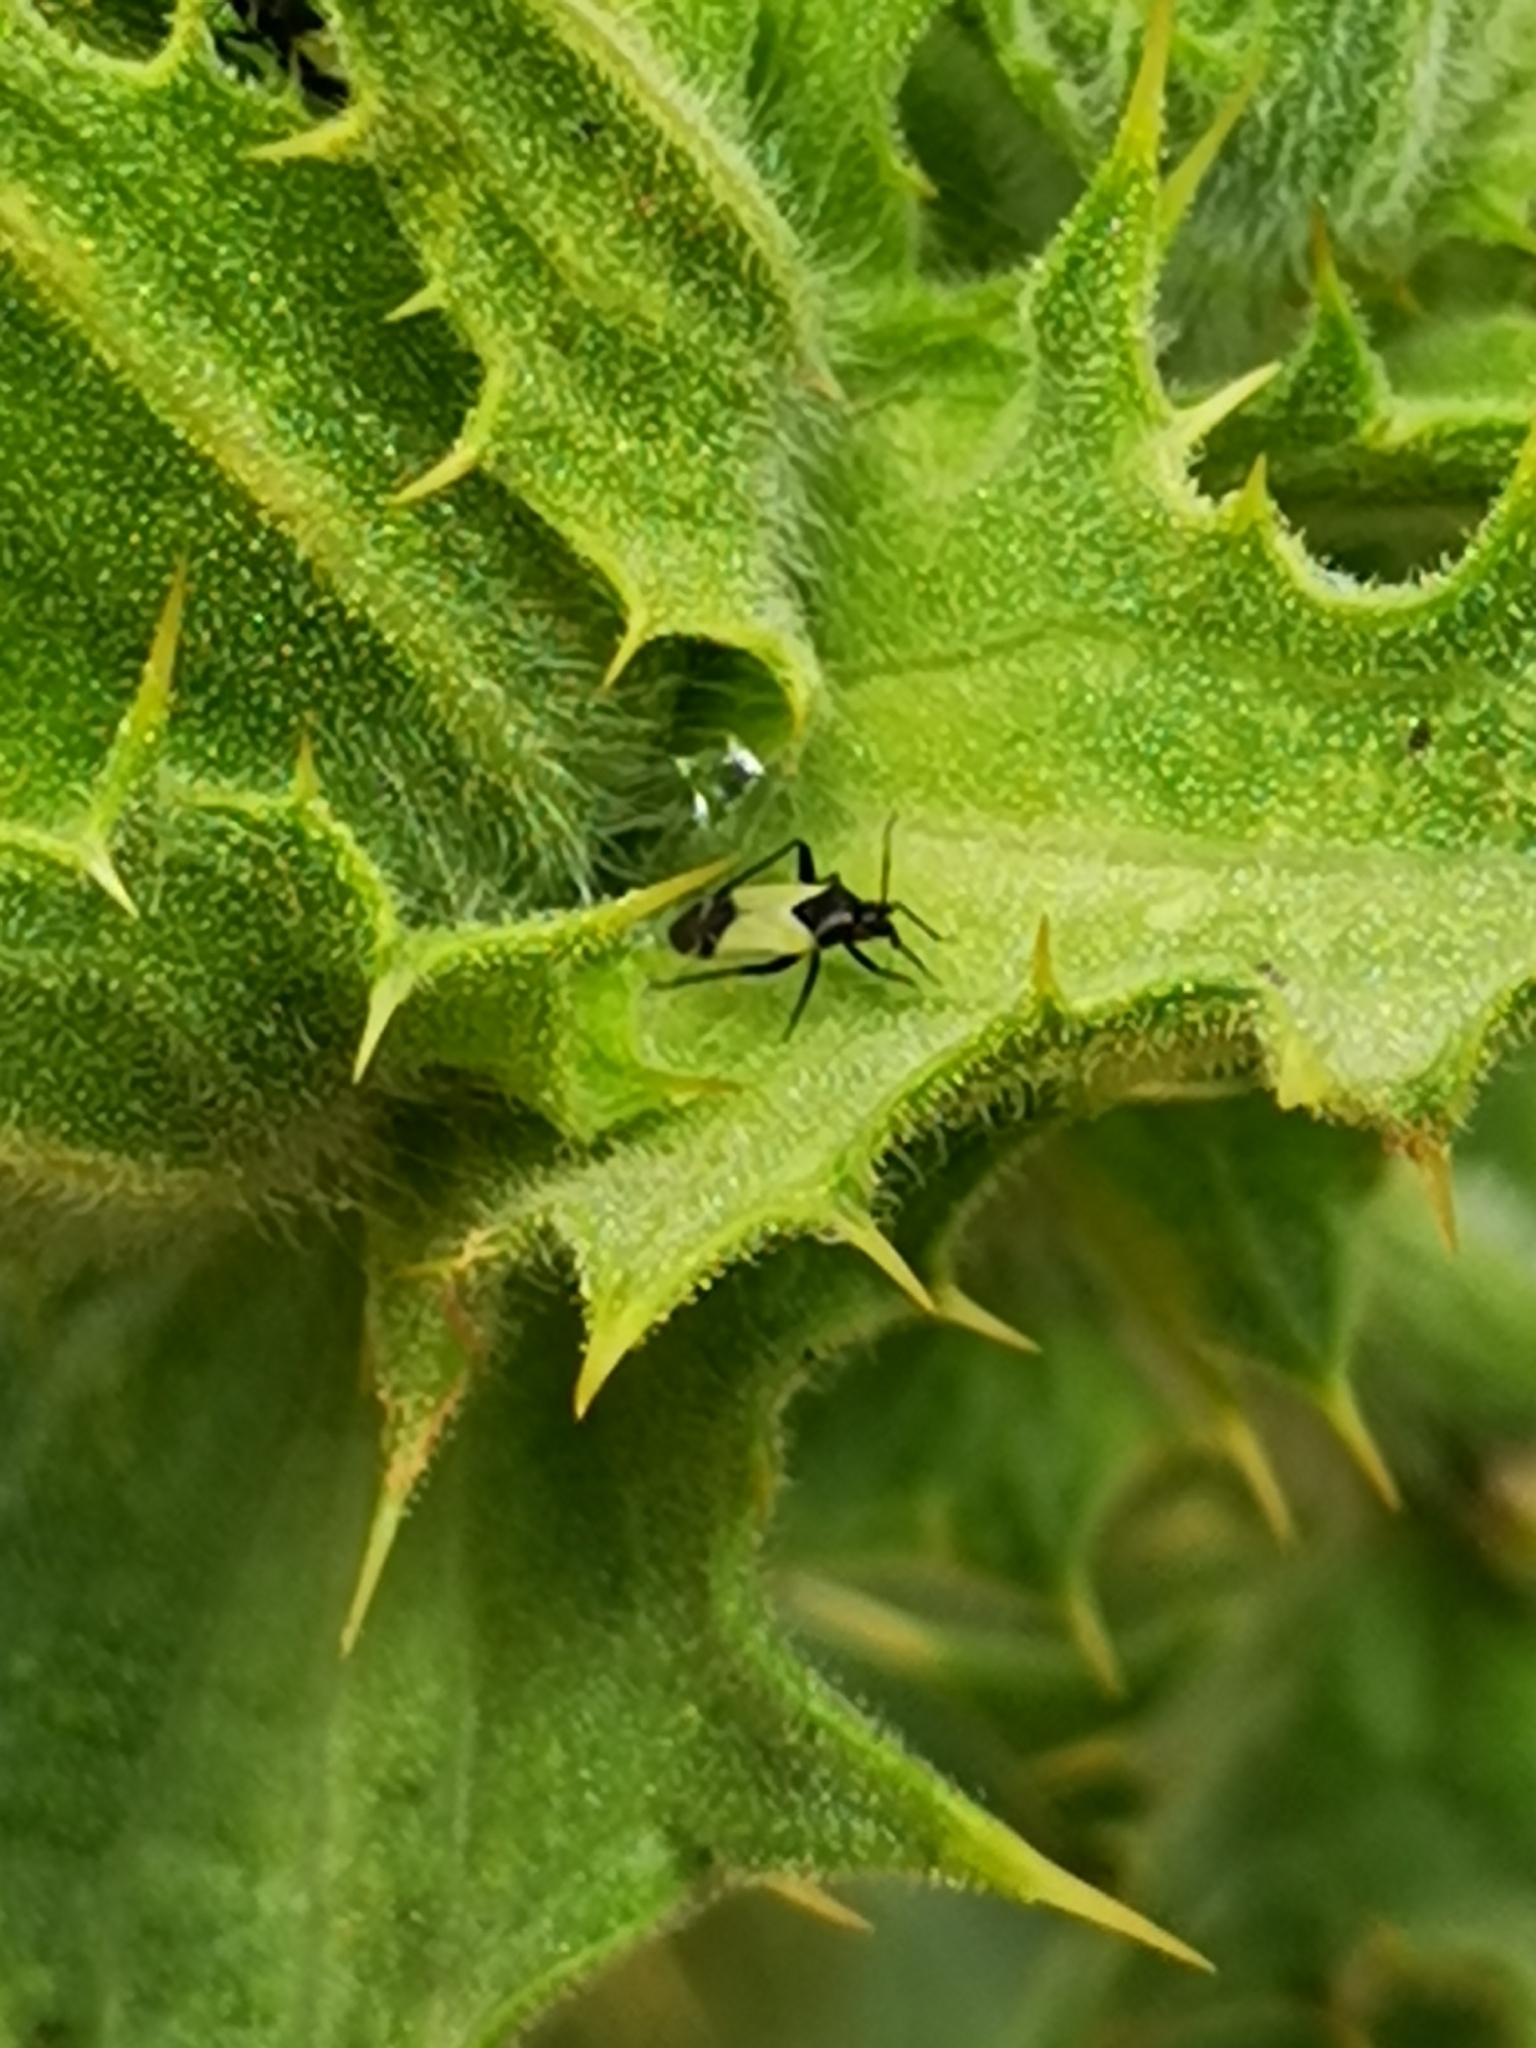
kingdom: Animalia
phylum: Arthropoda
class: Insecta
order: Hemiptera
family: Miridae
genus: Macrotylus
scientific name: Macrotylus bicolor
